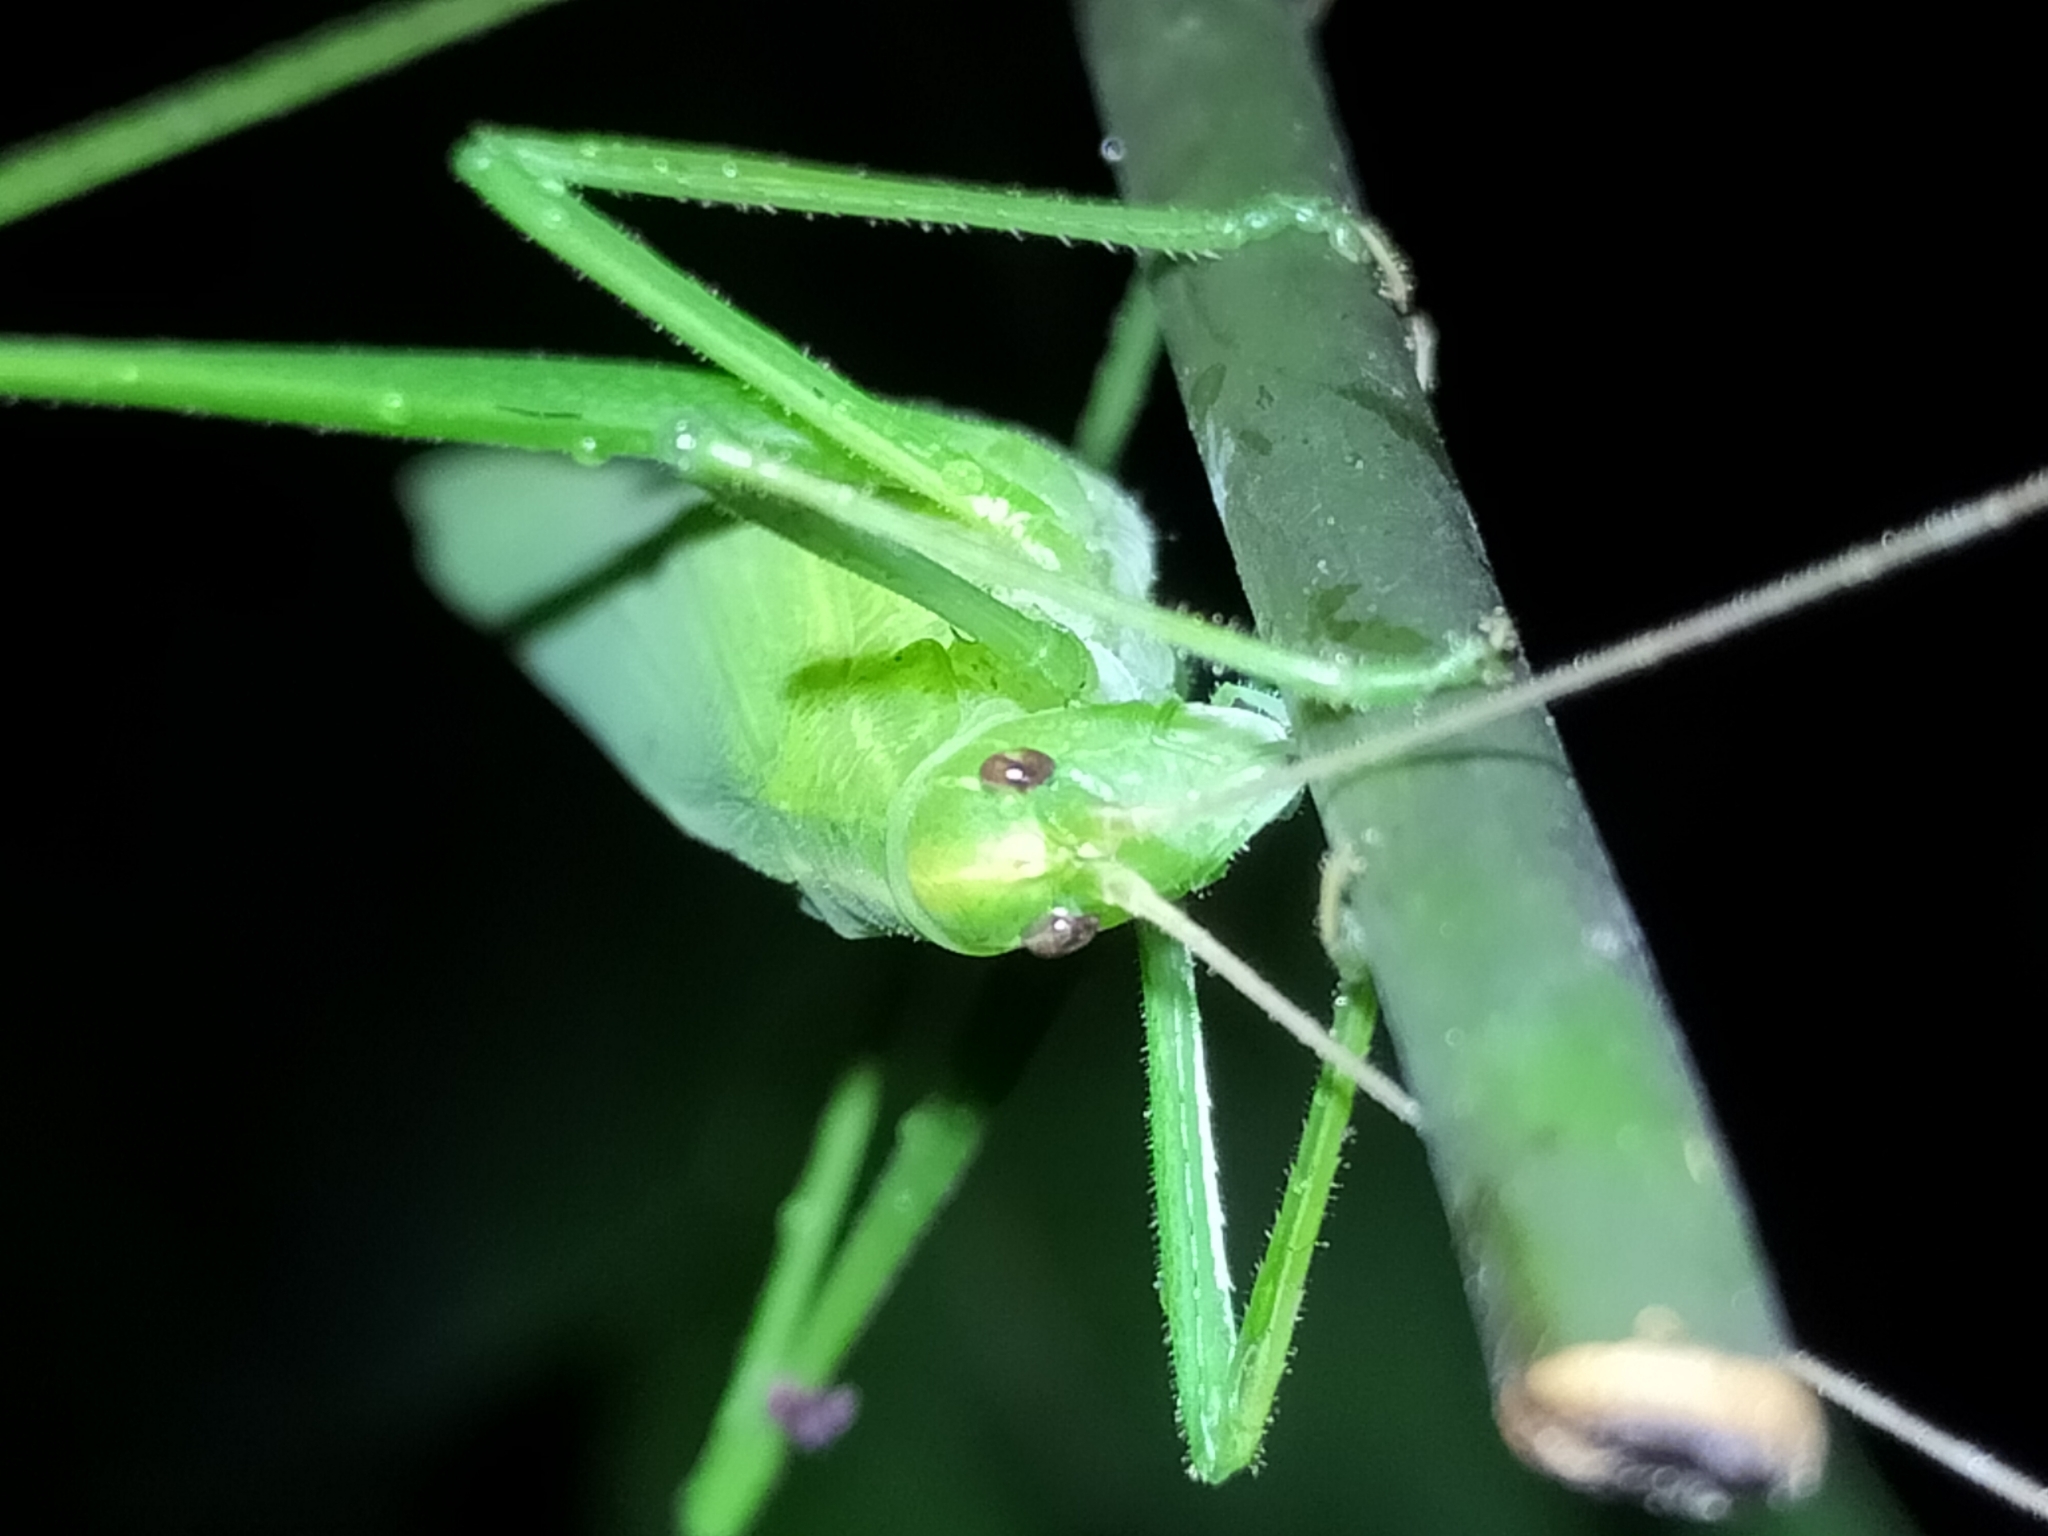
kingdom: Animalia
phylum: Arthropoda
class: Insecta
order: Orthoptera
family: Tettigoniidae
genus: Ducetia
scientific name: Ducetia antipoda
